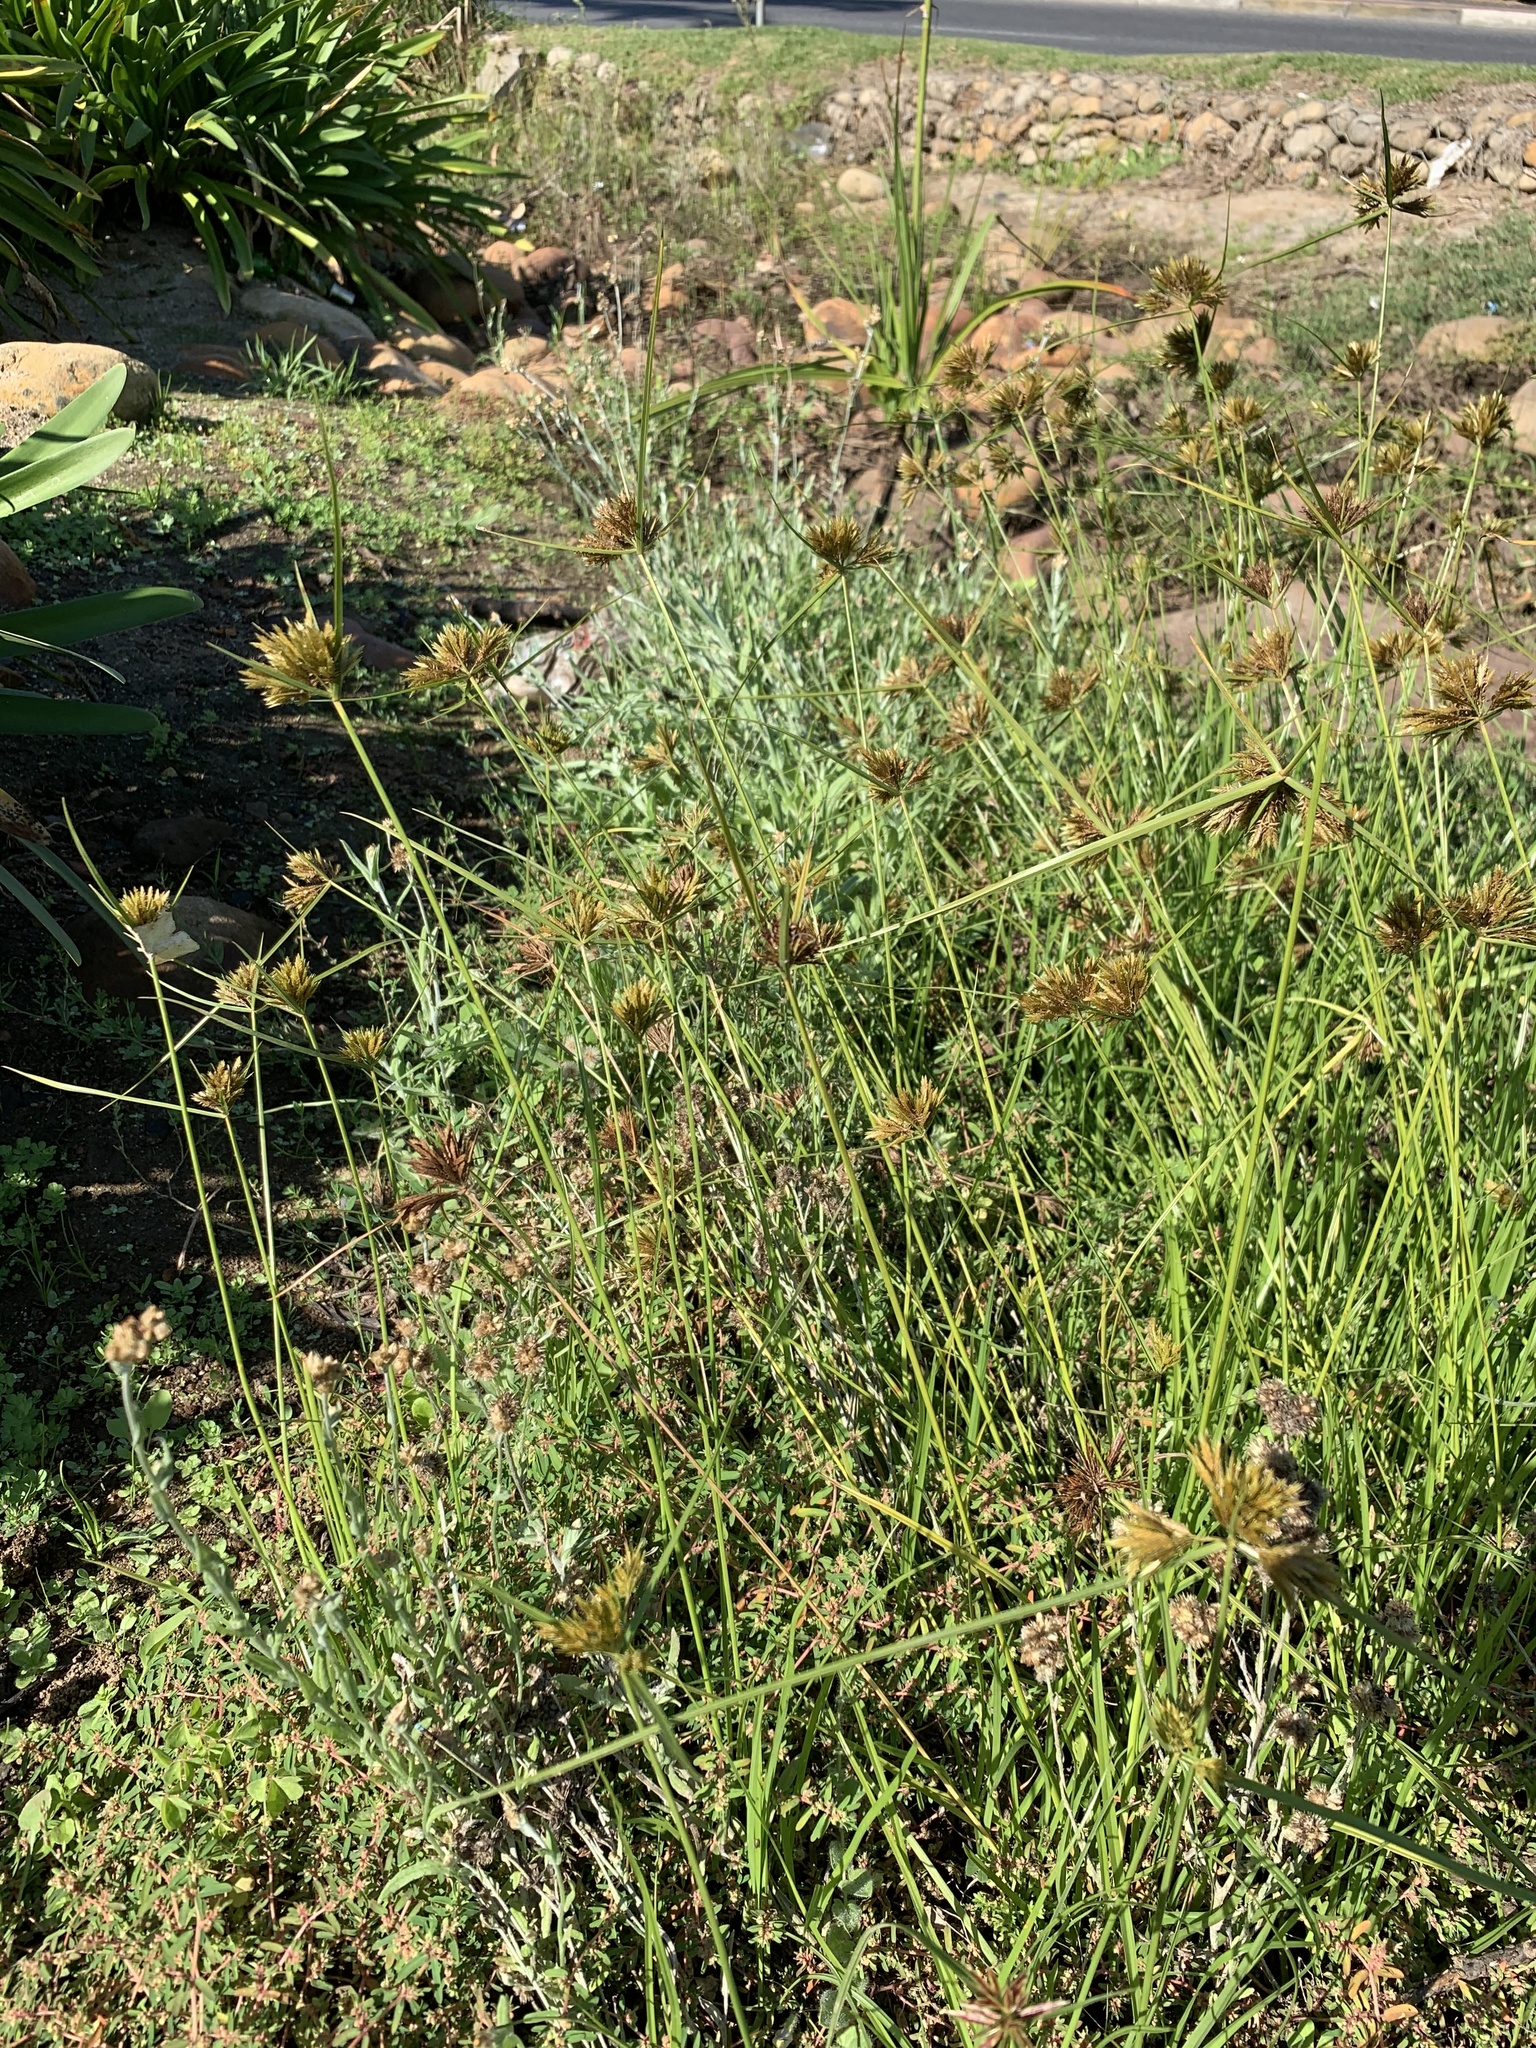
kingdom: Plantae
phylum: Tracheophyta
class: Liliopsida
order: Poales
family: Cyperaceae
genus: Cyperus
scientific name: Cyperus polystachyos
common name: Bunchy flat sedge
